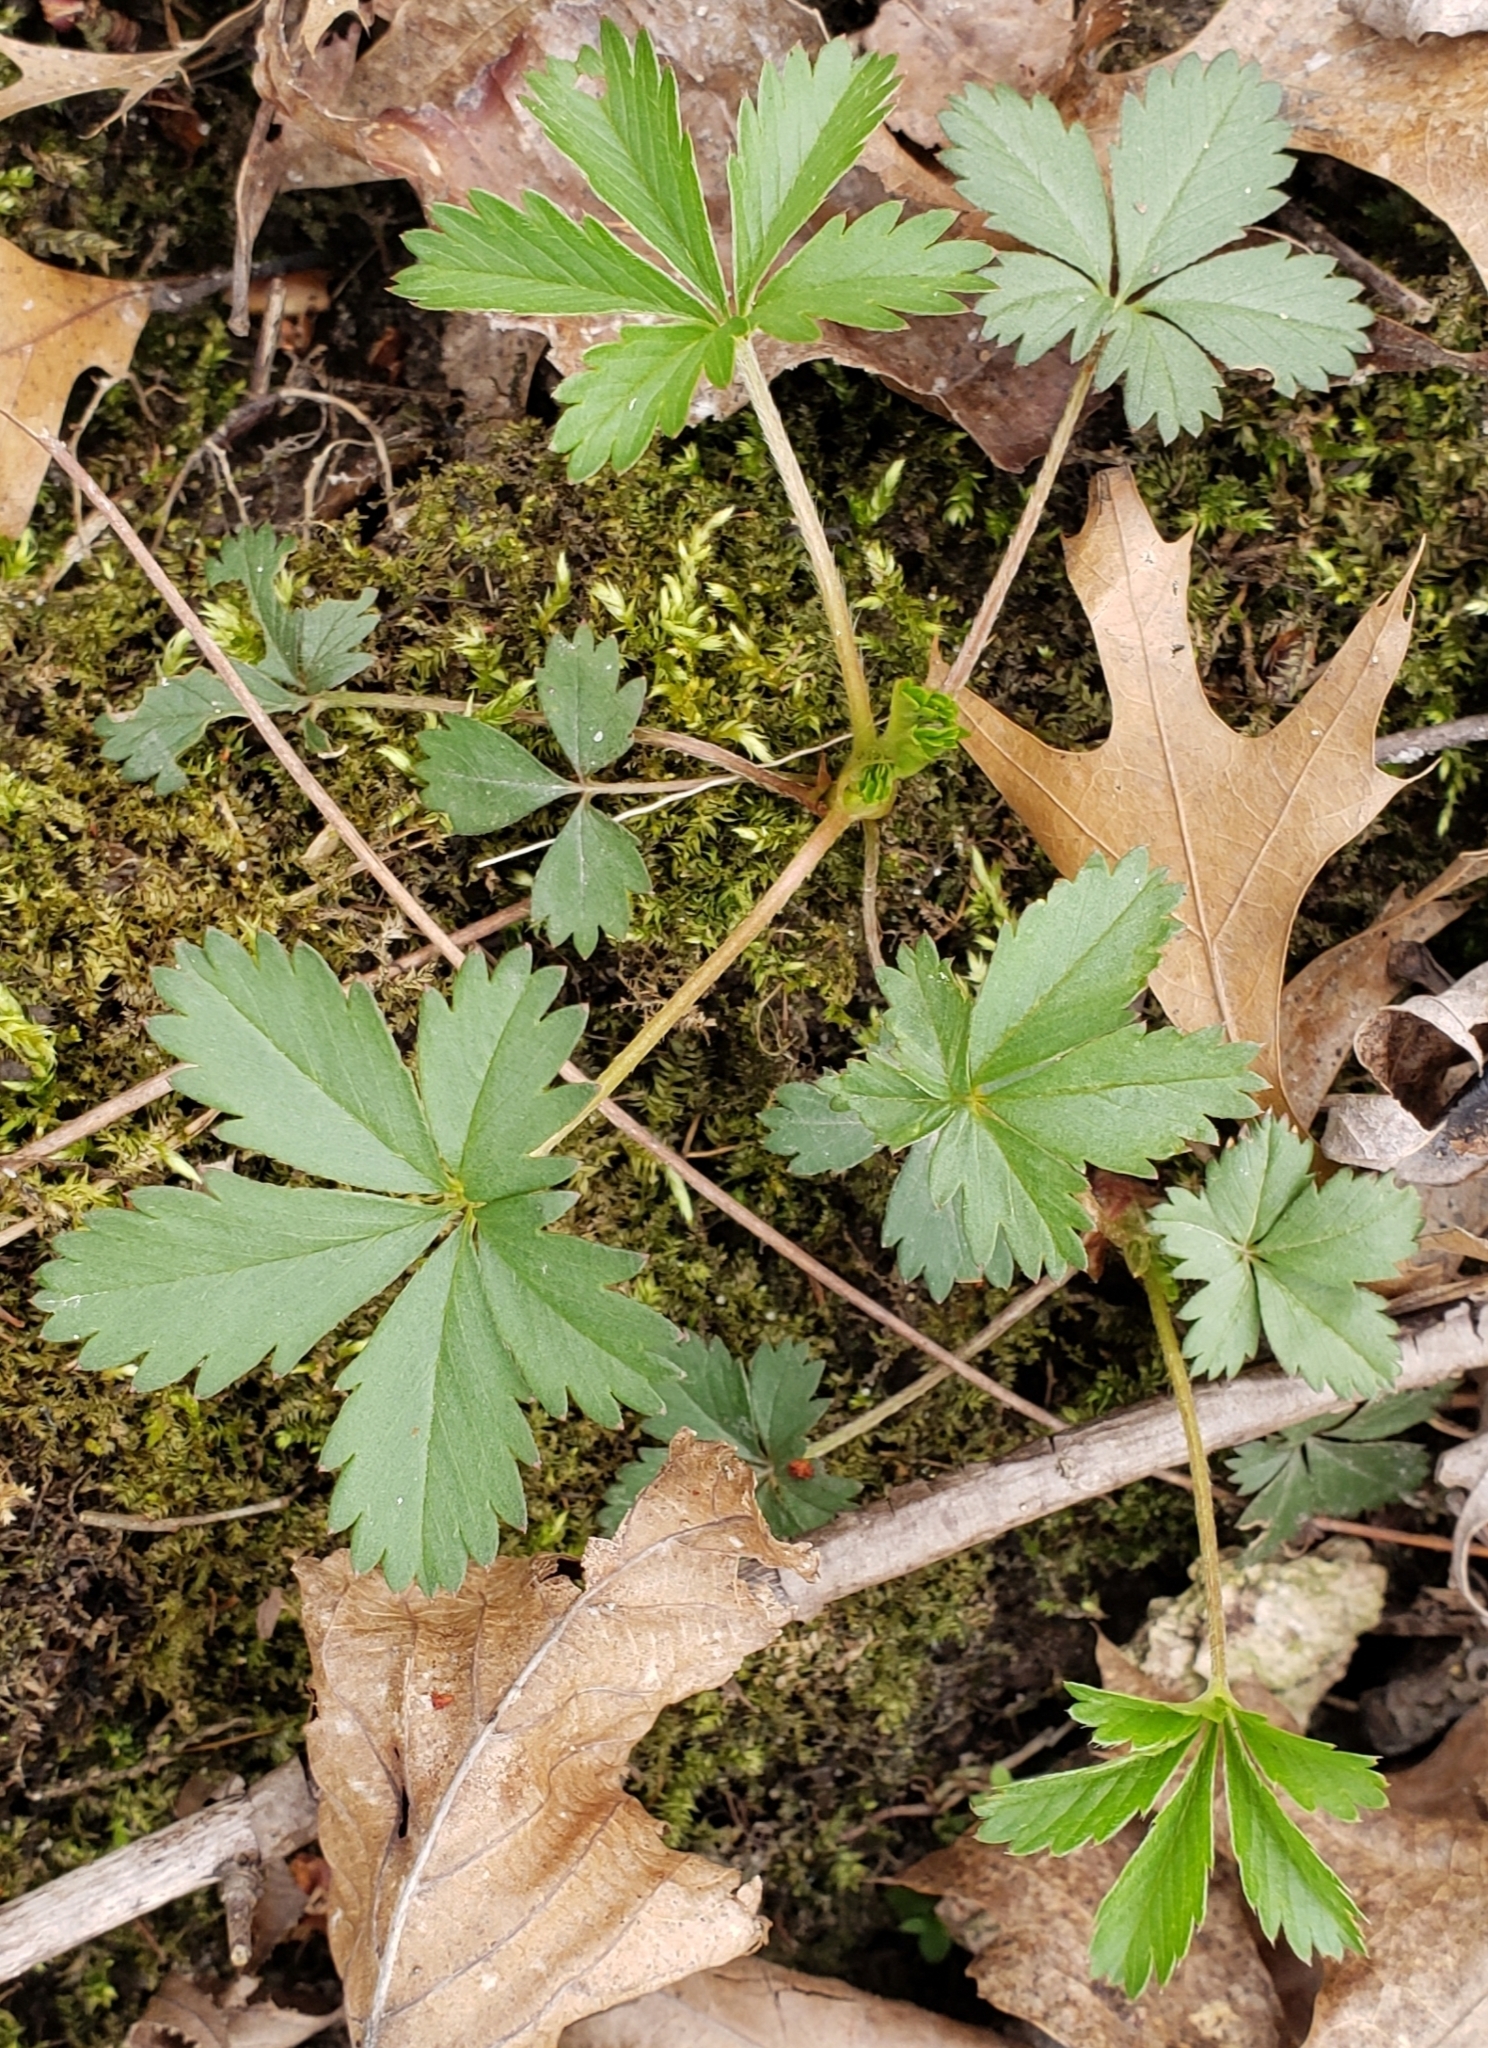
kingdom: Plantae
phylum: Tracheophyta
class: Magnoliopsida
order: Rosales
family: Rosaceae
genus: Potentilla
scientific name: Potentilla simplex
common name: Old field cinquefoil
